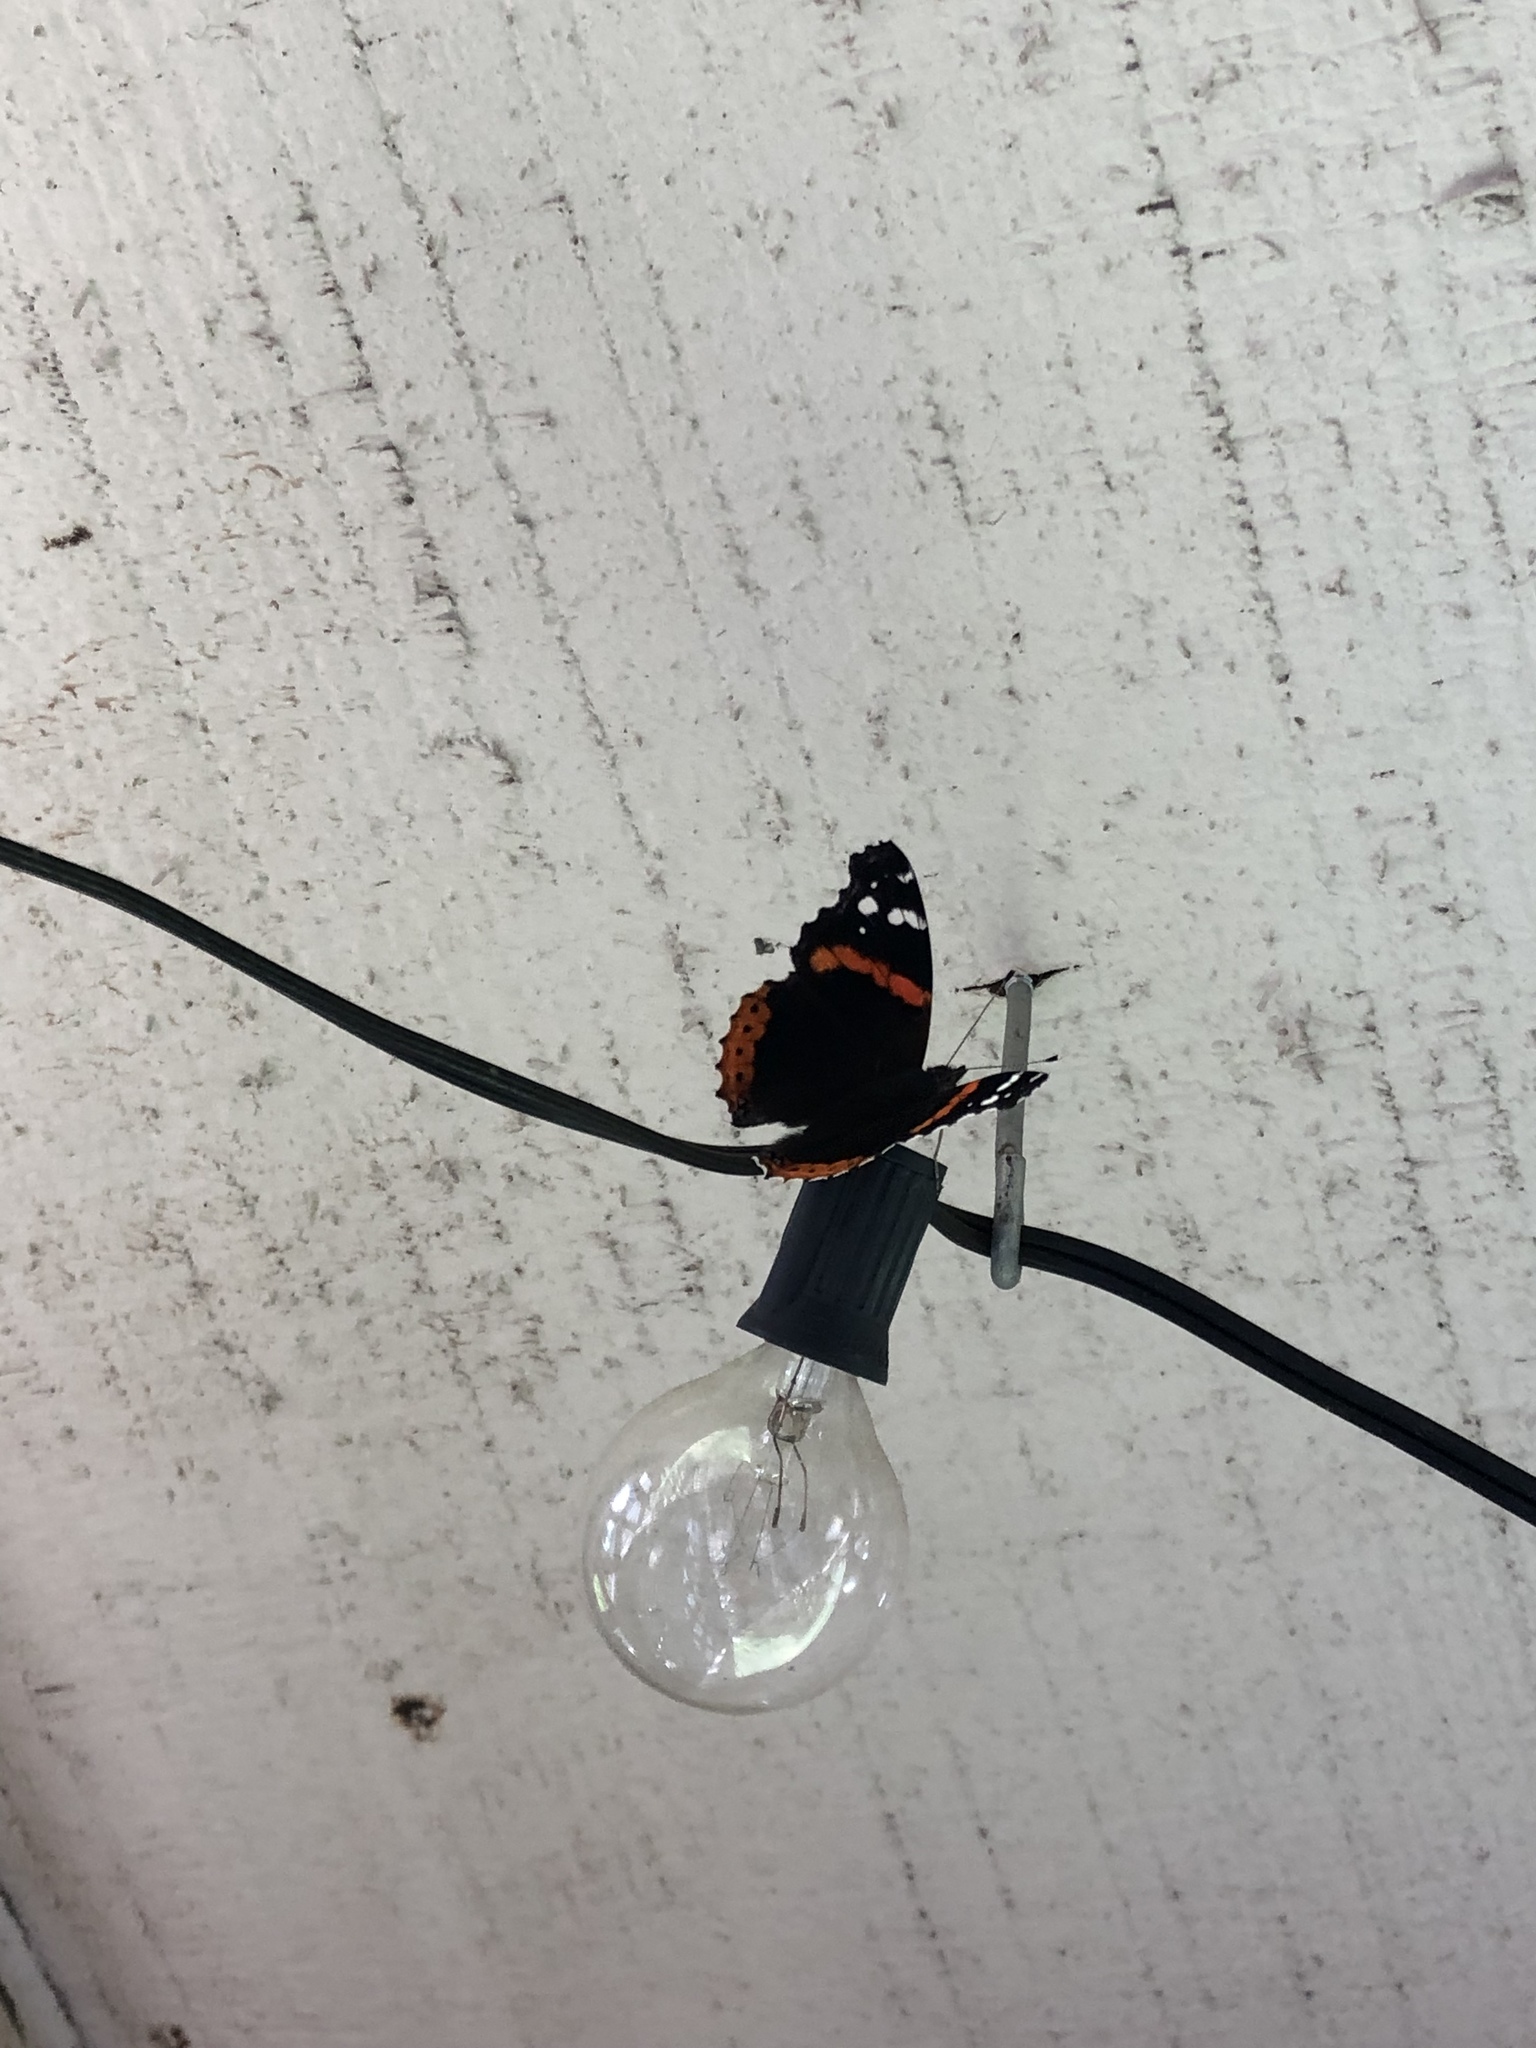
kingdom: Animalia
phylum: Arthropoda
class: Insecta
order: Lepidoptera
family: Nymphalidae
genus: Vanessa
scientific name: Vanessa atalanta
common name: Red admiral
